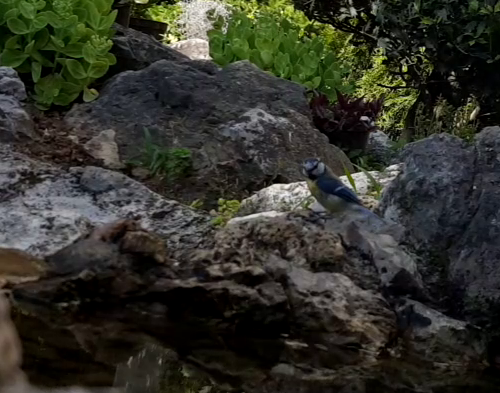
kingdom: Animalia
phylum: Chordata
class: Aves
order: Passeriformes
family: Paridae
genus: Cyanistes
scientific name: Cyanistes caeruleus
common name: Eurasian blue tit
